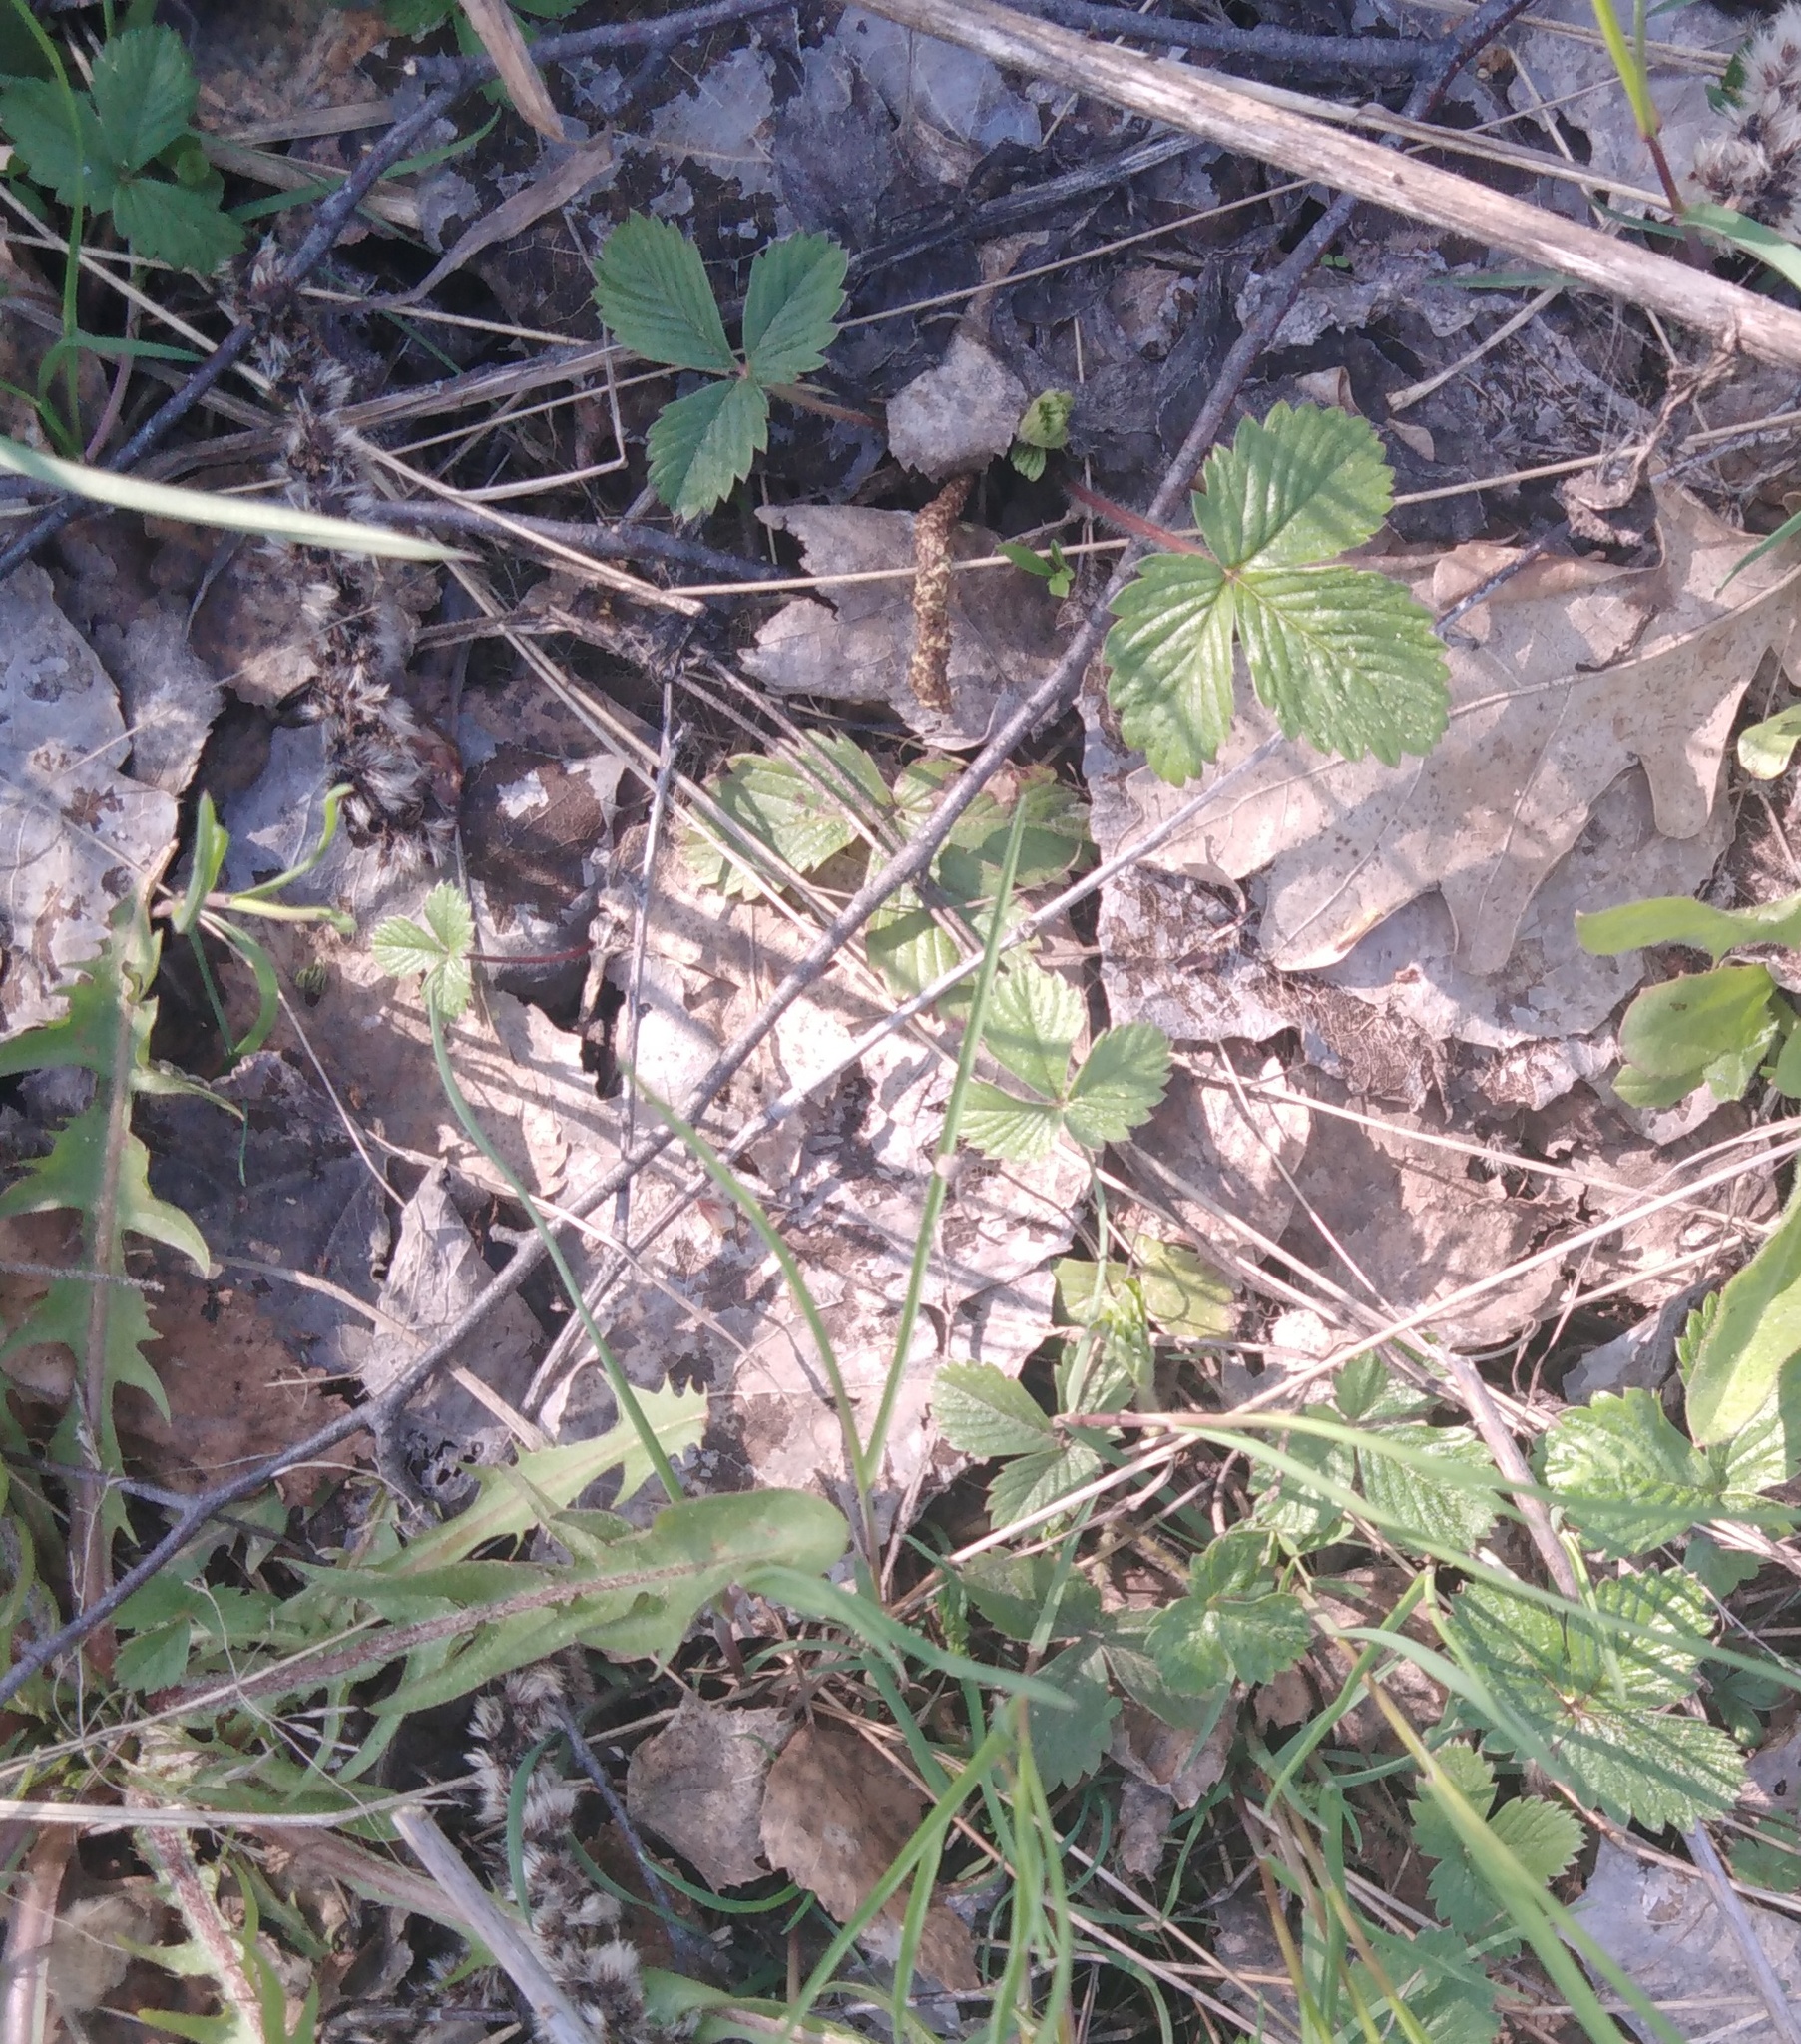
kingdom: Plantae
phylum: Tracheophyta
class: Magnoliopsida
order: Rosales
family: Rosaceae
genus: Fragaria
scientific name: Fragaria vesca
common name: Wild strawberry
